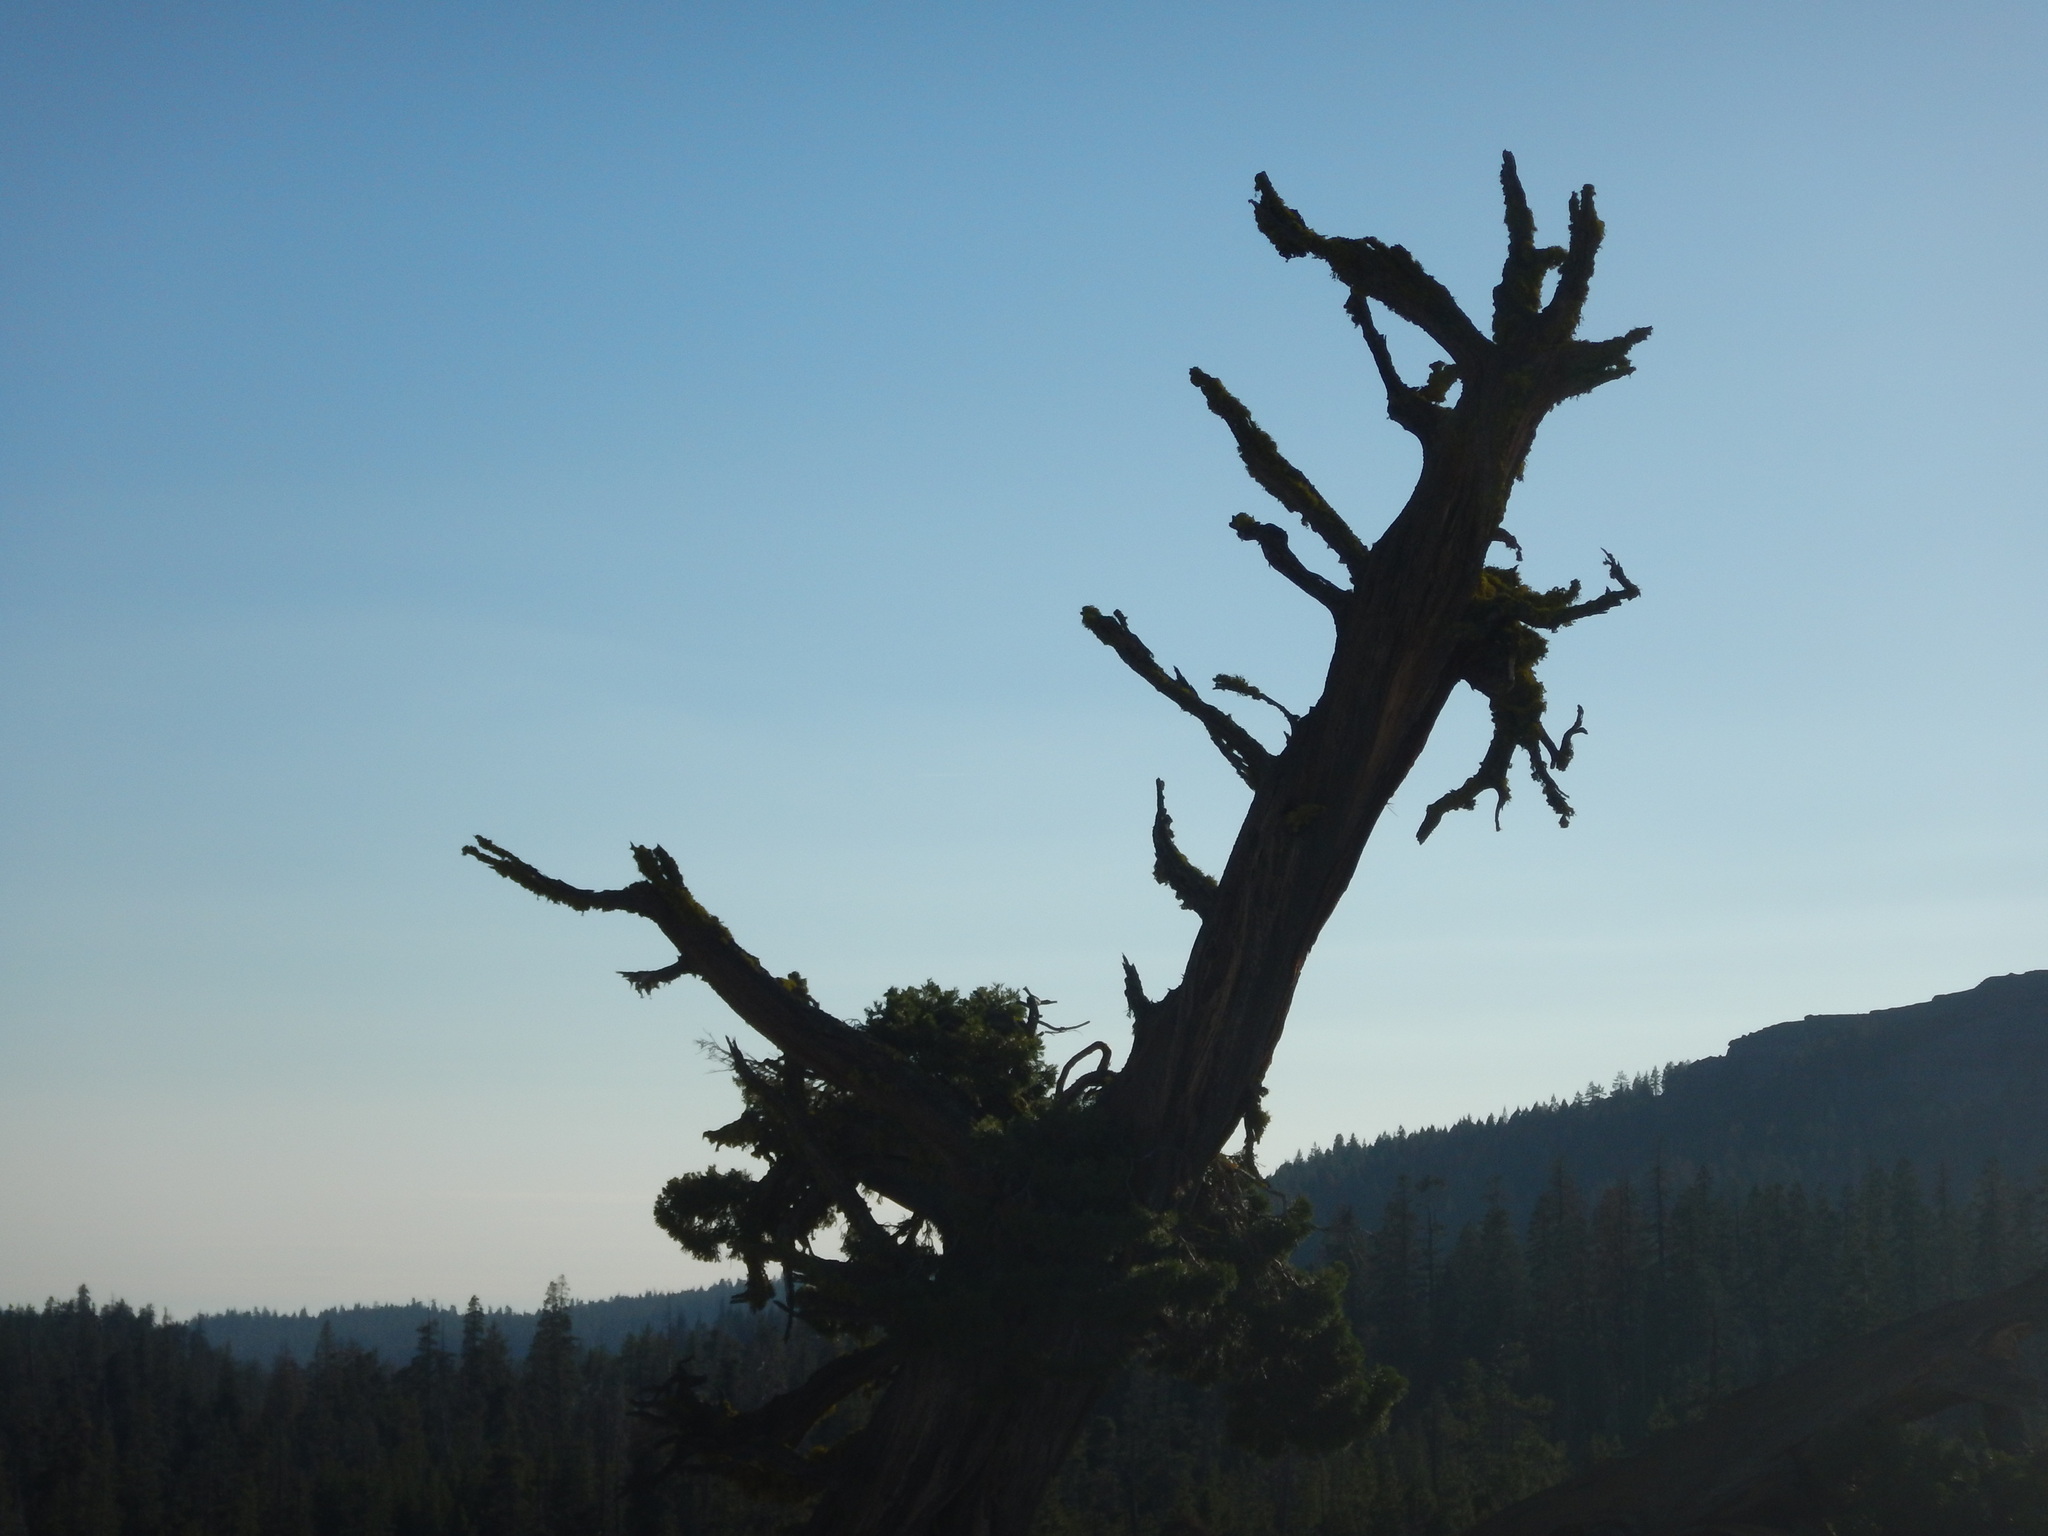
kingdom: Plantae
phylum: Tracheophyta
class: Pinopsida
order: Pinales
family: Cupressaceae
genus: Juniperus
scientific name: Juniperus occidentalis
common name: Western juniper
